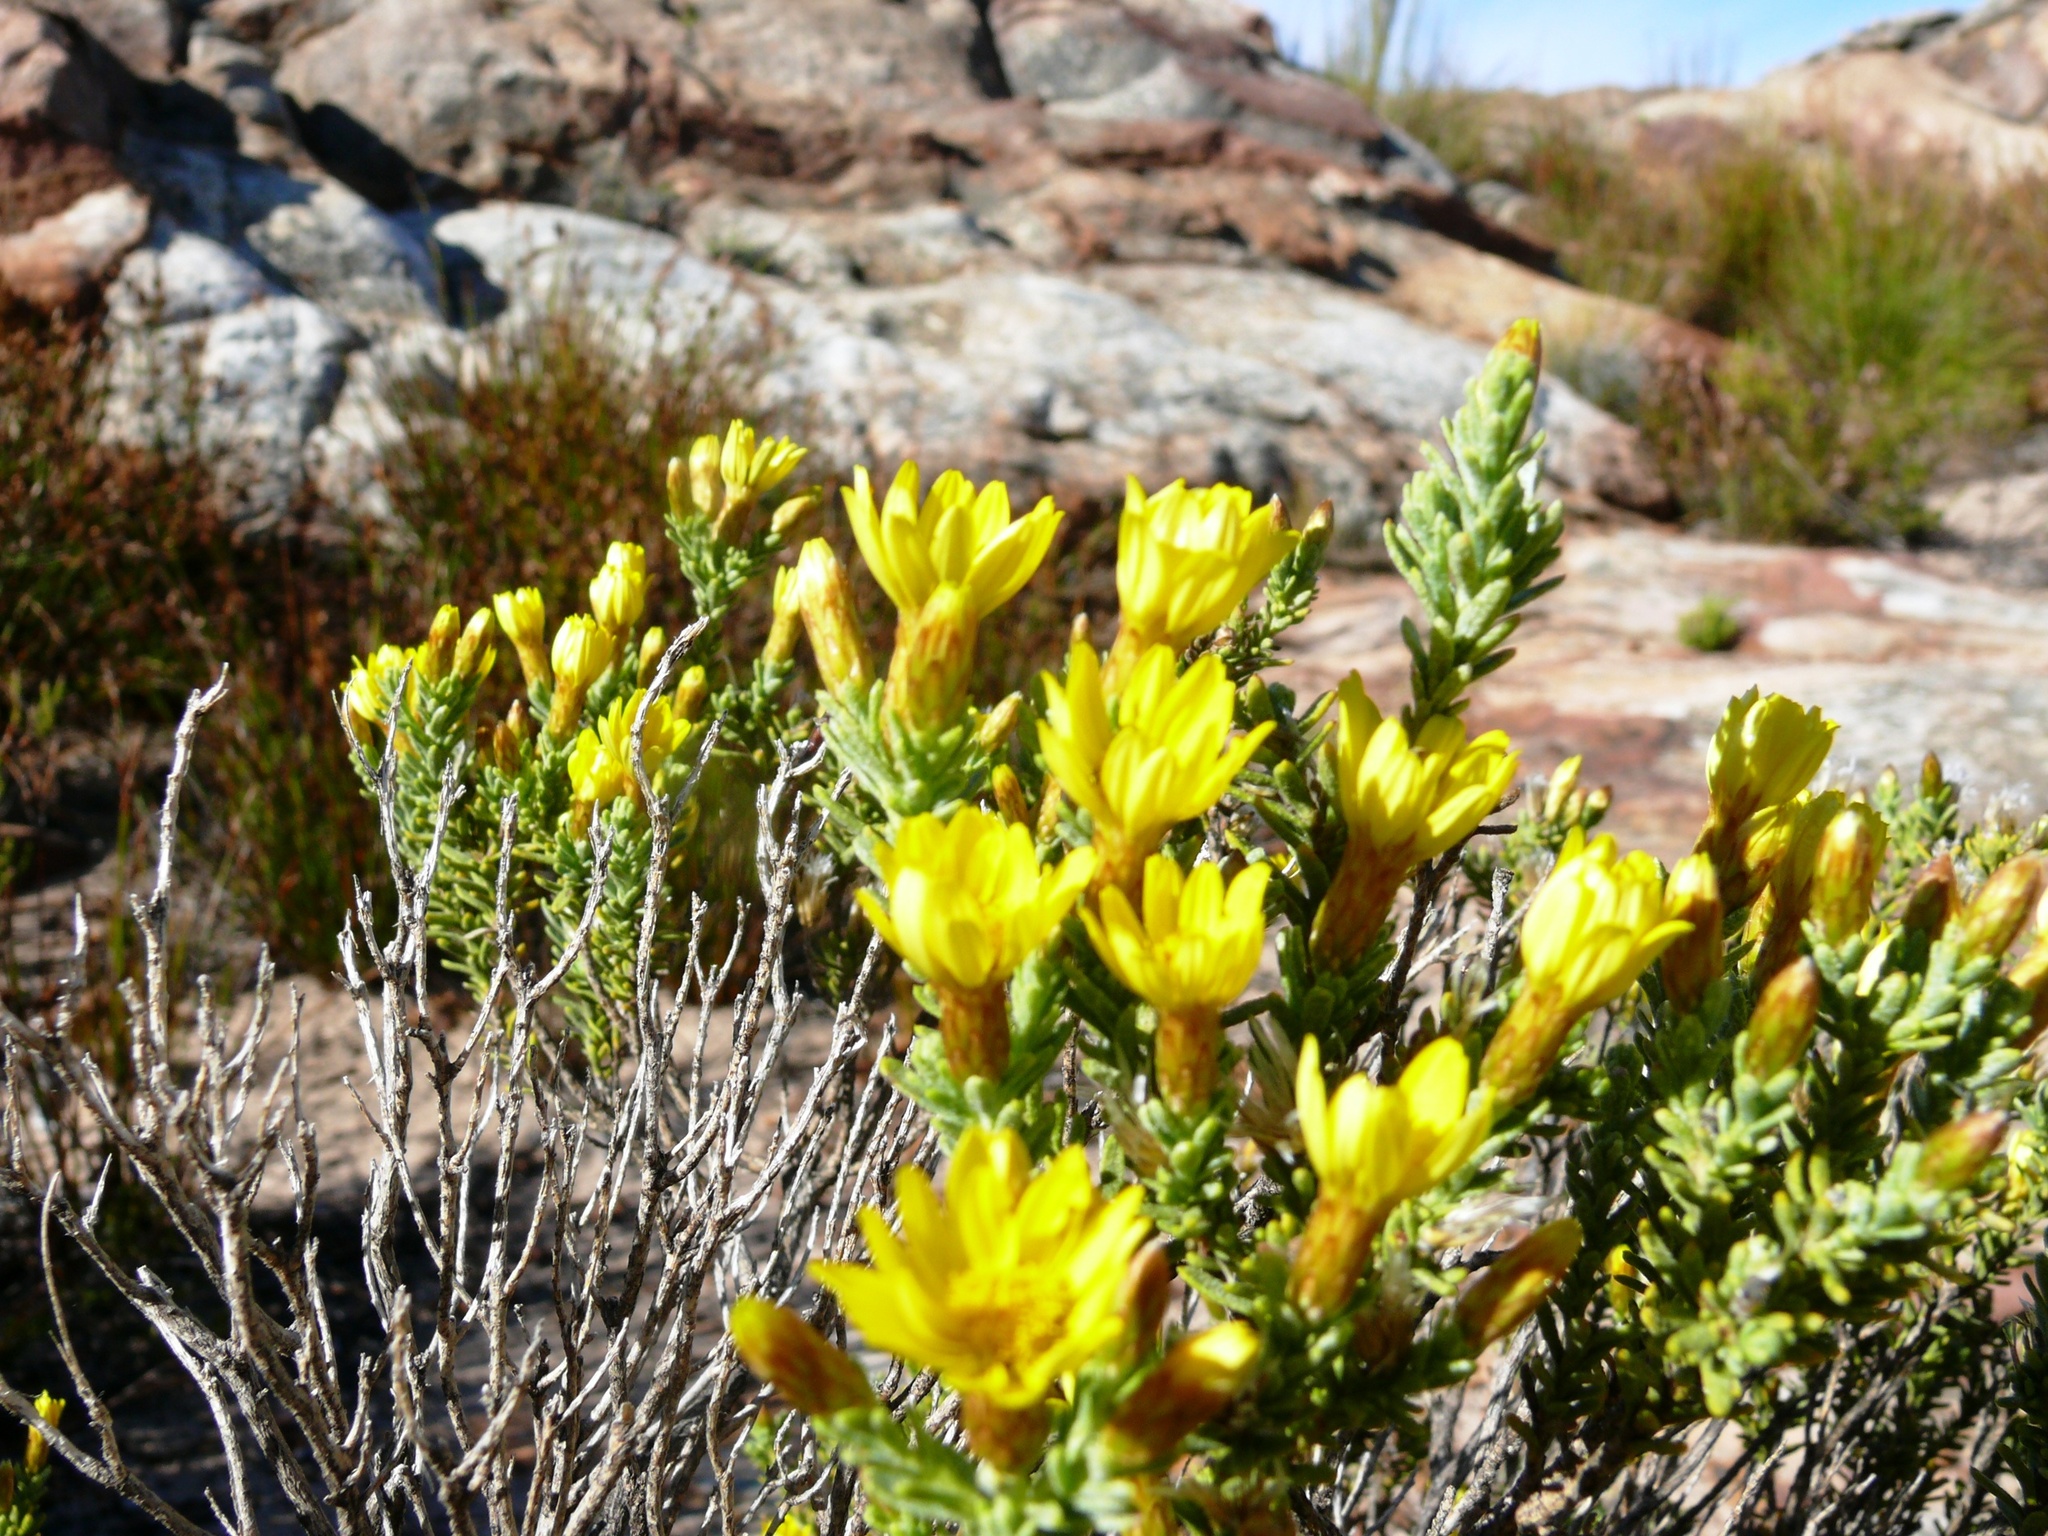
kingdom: Plantae
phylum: Tracheophyta
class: Magnoliopsida
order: Asterales
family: Asteraceae
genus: Oedera
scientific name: Oedera sedifolia
